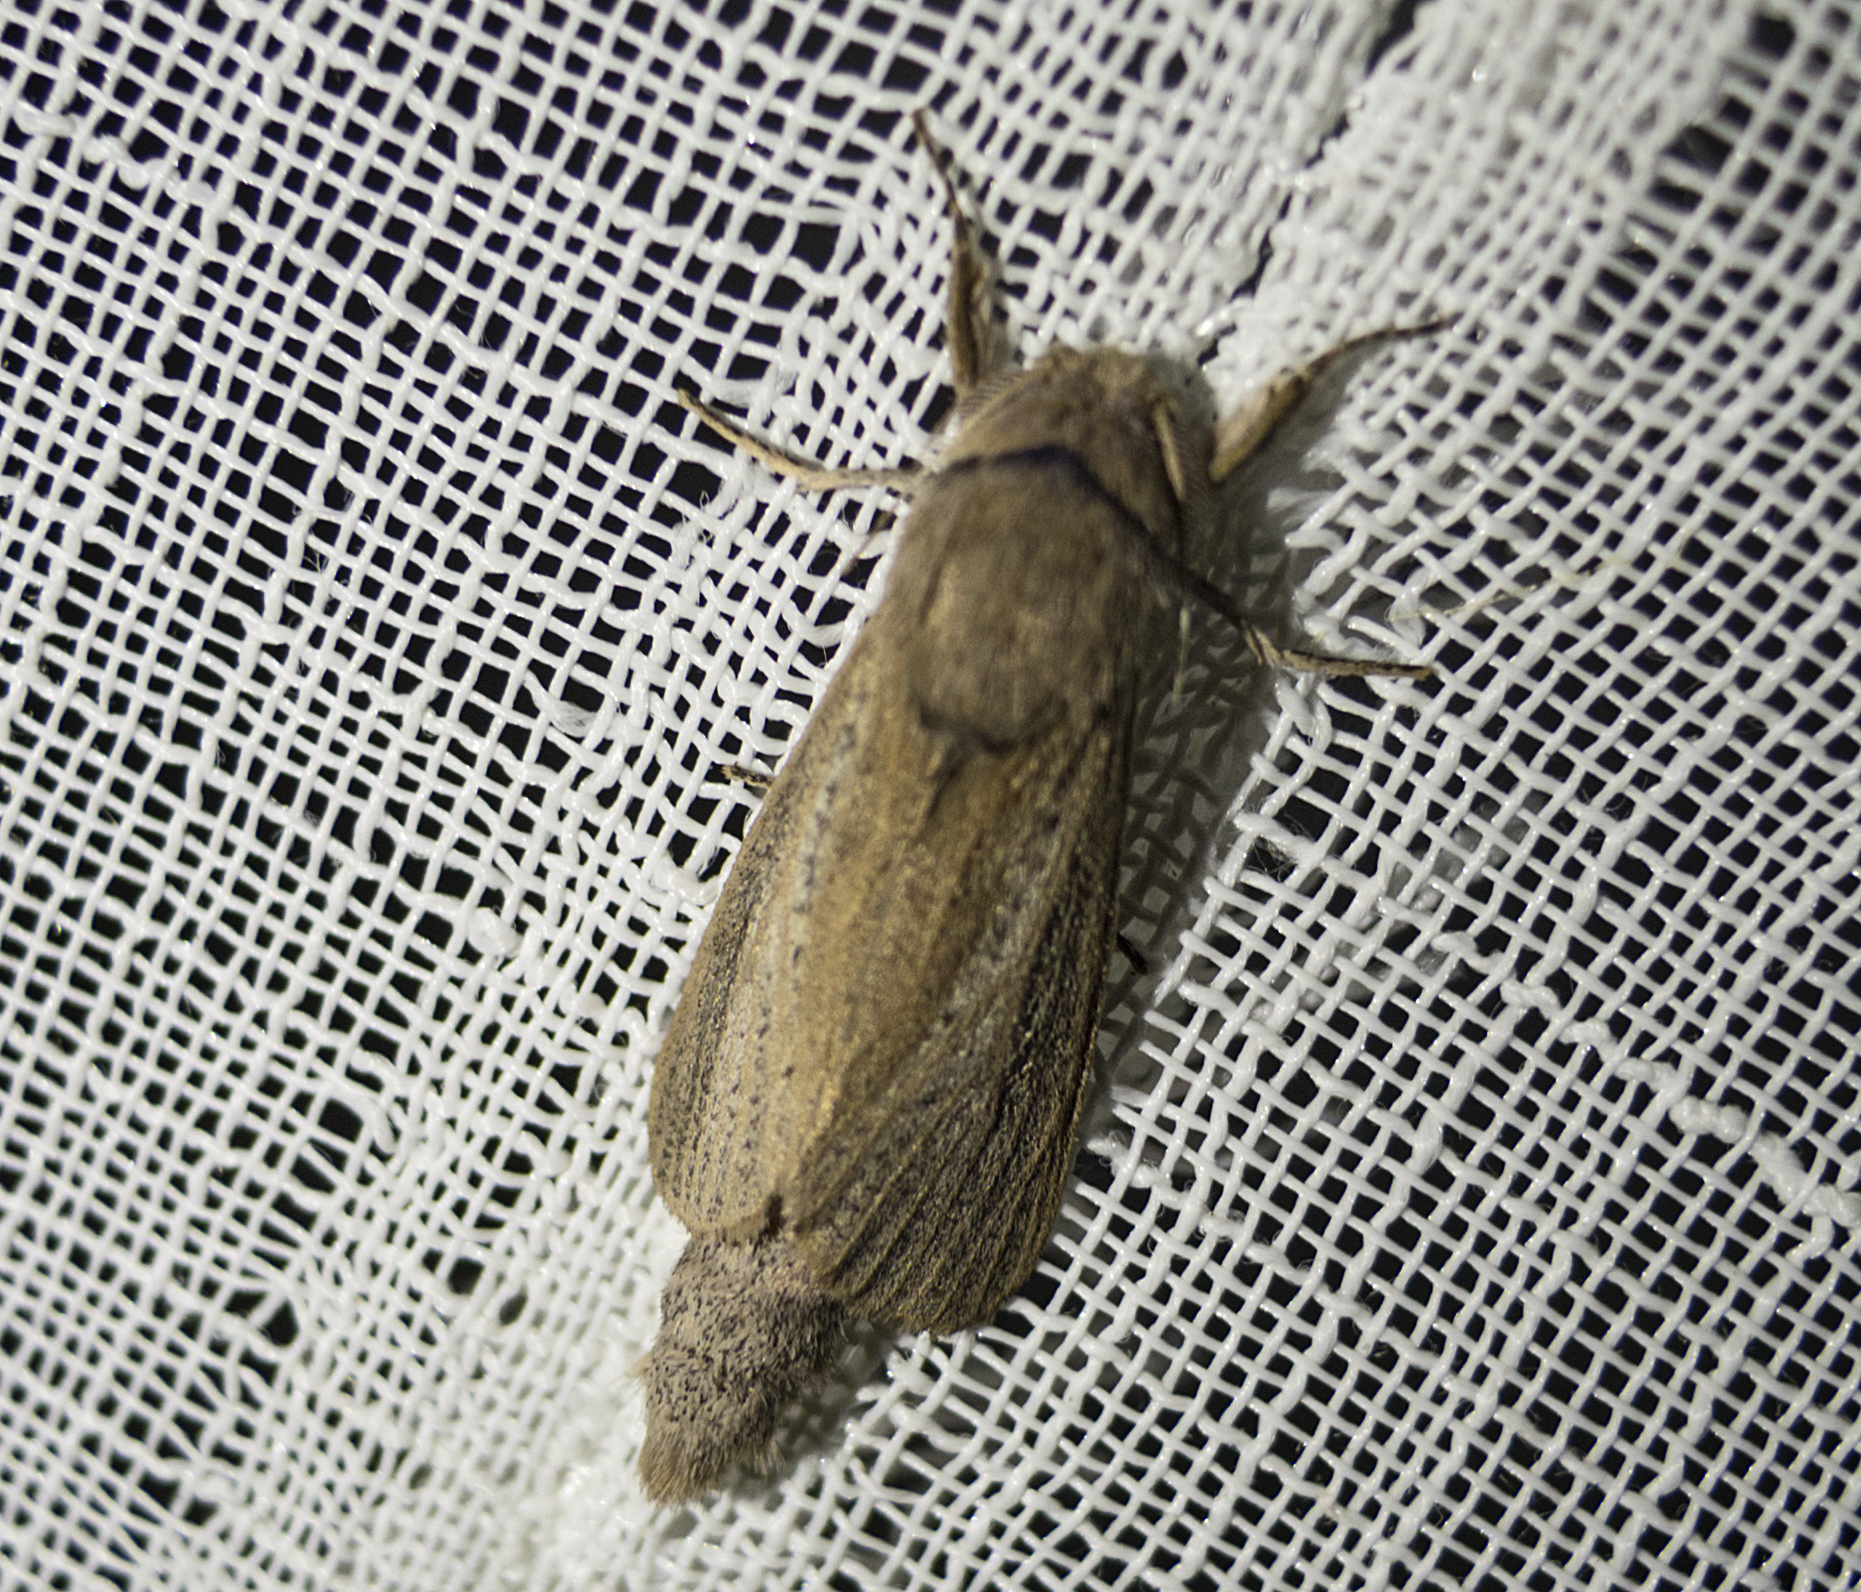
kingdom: Animalia
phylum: Arthropoda
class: Insecta
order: Lepidoptera
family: Cossidae
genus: Phragmataecia
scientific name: Phragmataecia castaneae
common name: Reed leopard
